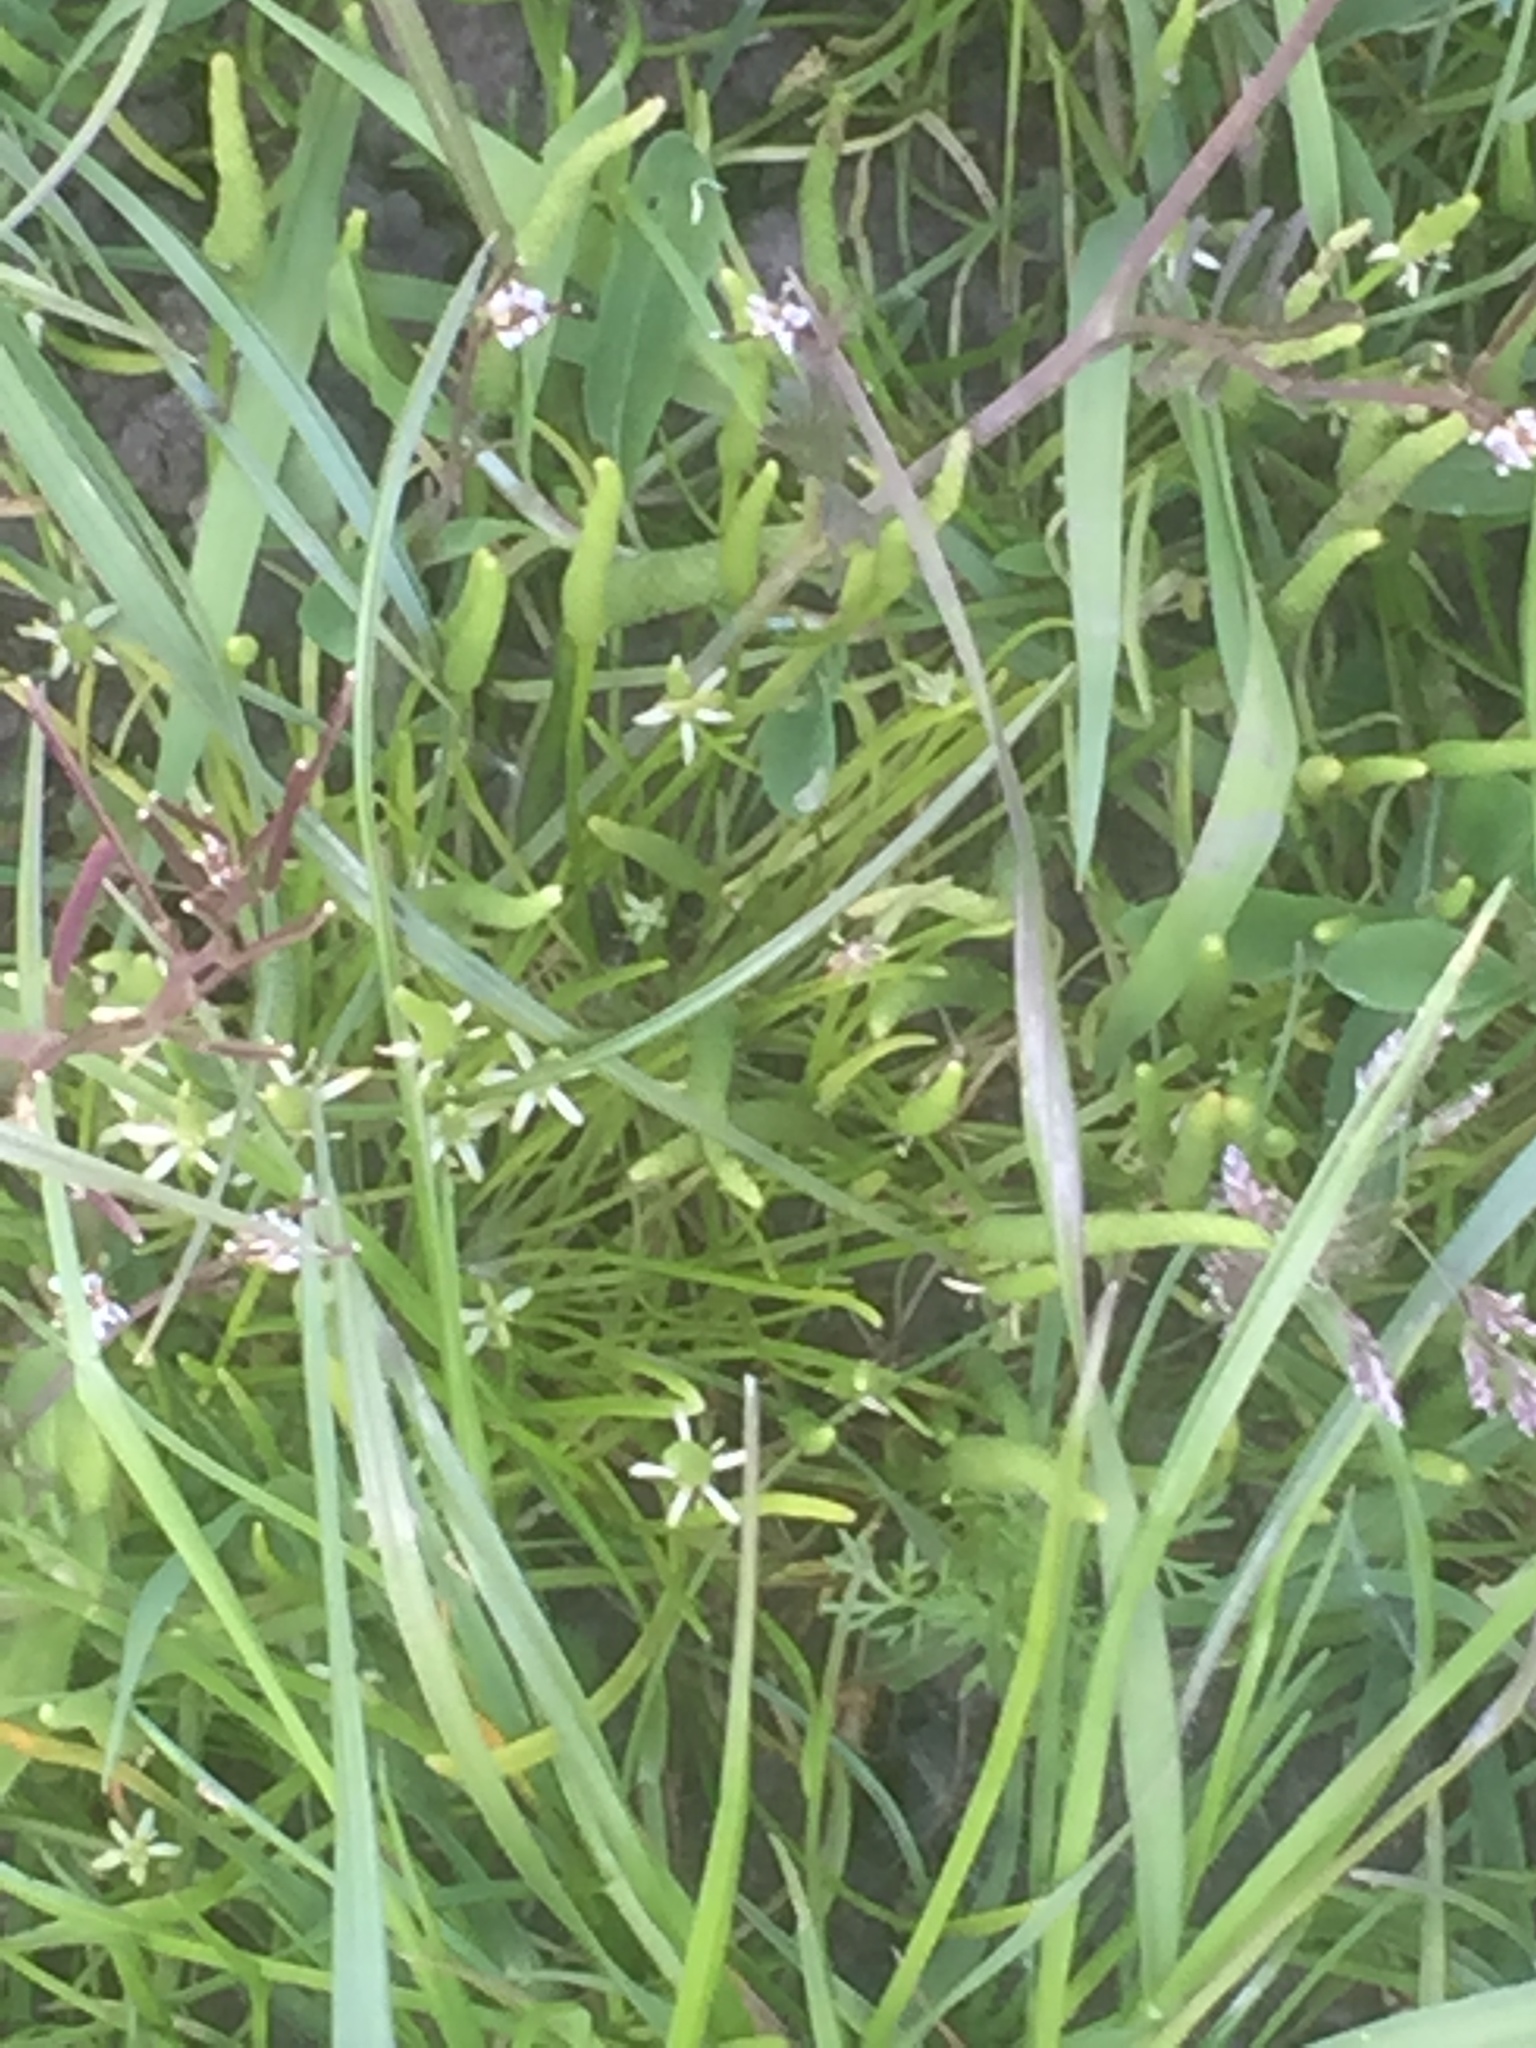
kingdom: Plantae
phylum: Tracheophyta
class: Magnoliopsida
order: Ranunculales
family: Ranunculaceae
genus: Myosurus
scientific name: Myosurus minimus
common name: Mousetail
